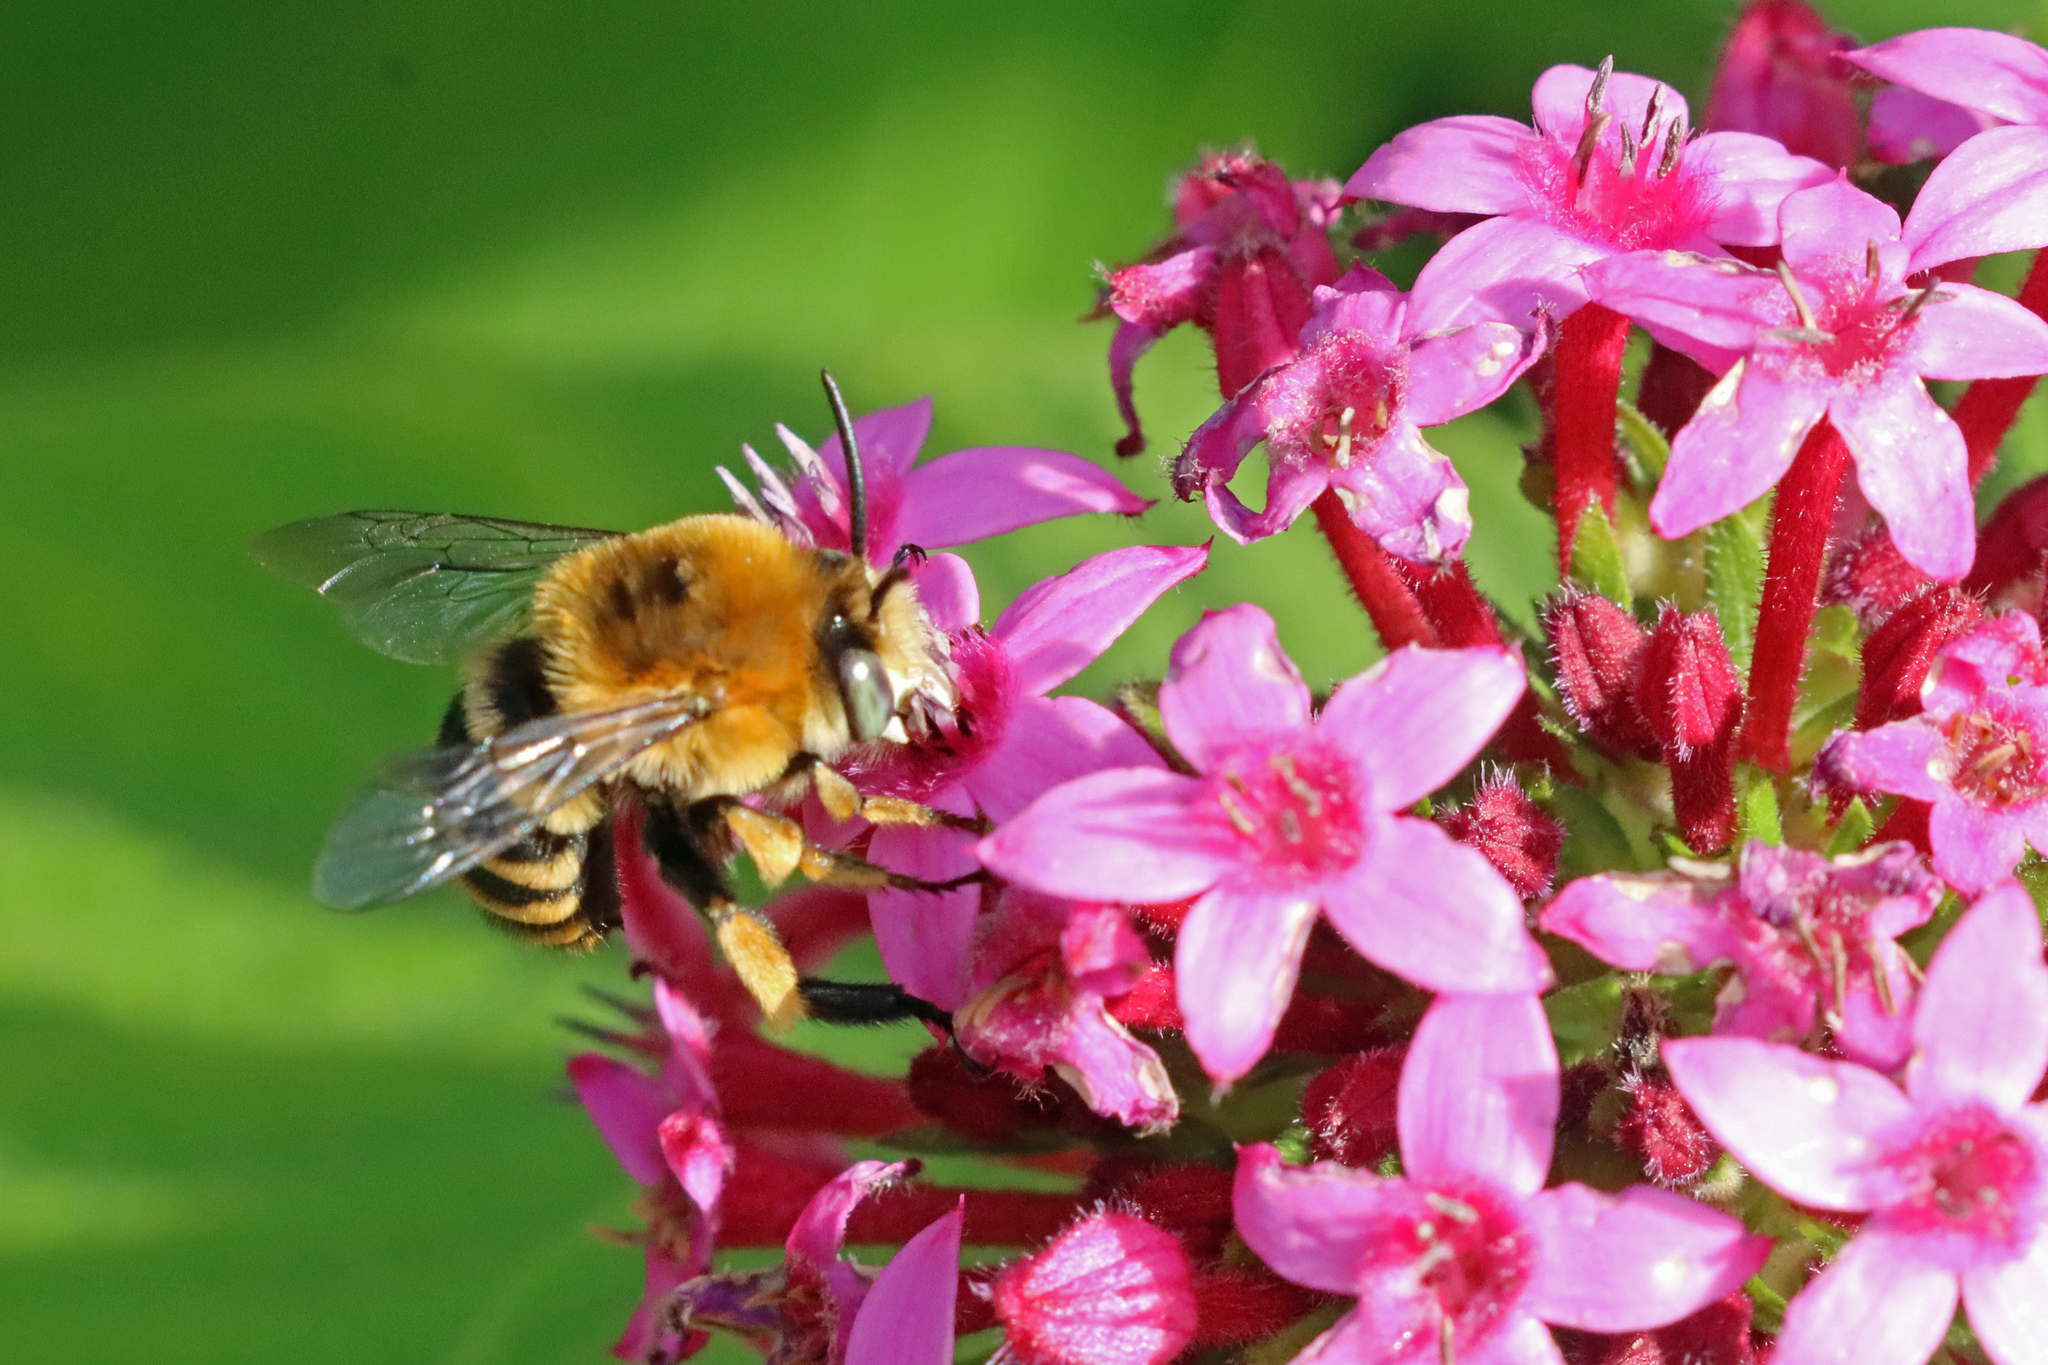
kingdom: Animalia
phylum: Arthropoda
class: Insecta
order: Hymenoptera
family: Apidae
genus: Amegilla
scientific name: Amegilla quadrifasciata
